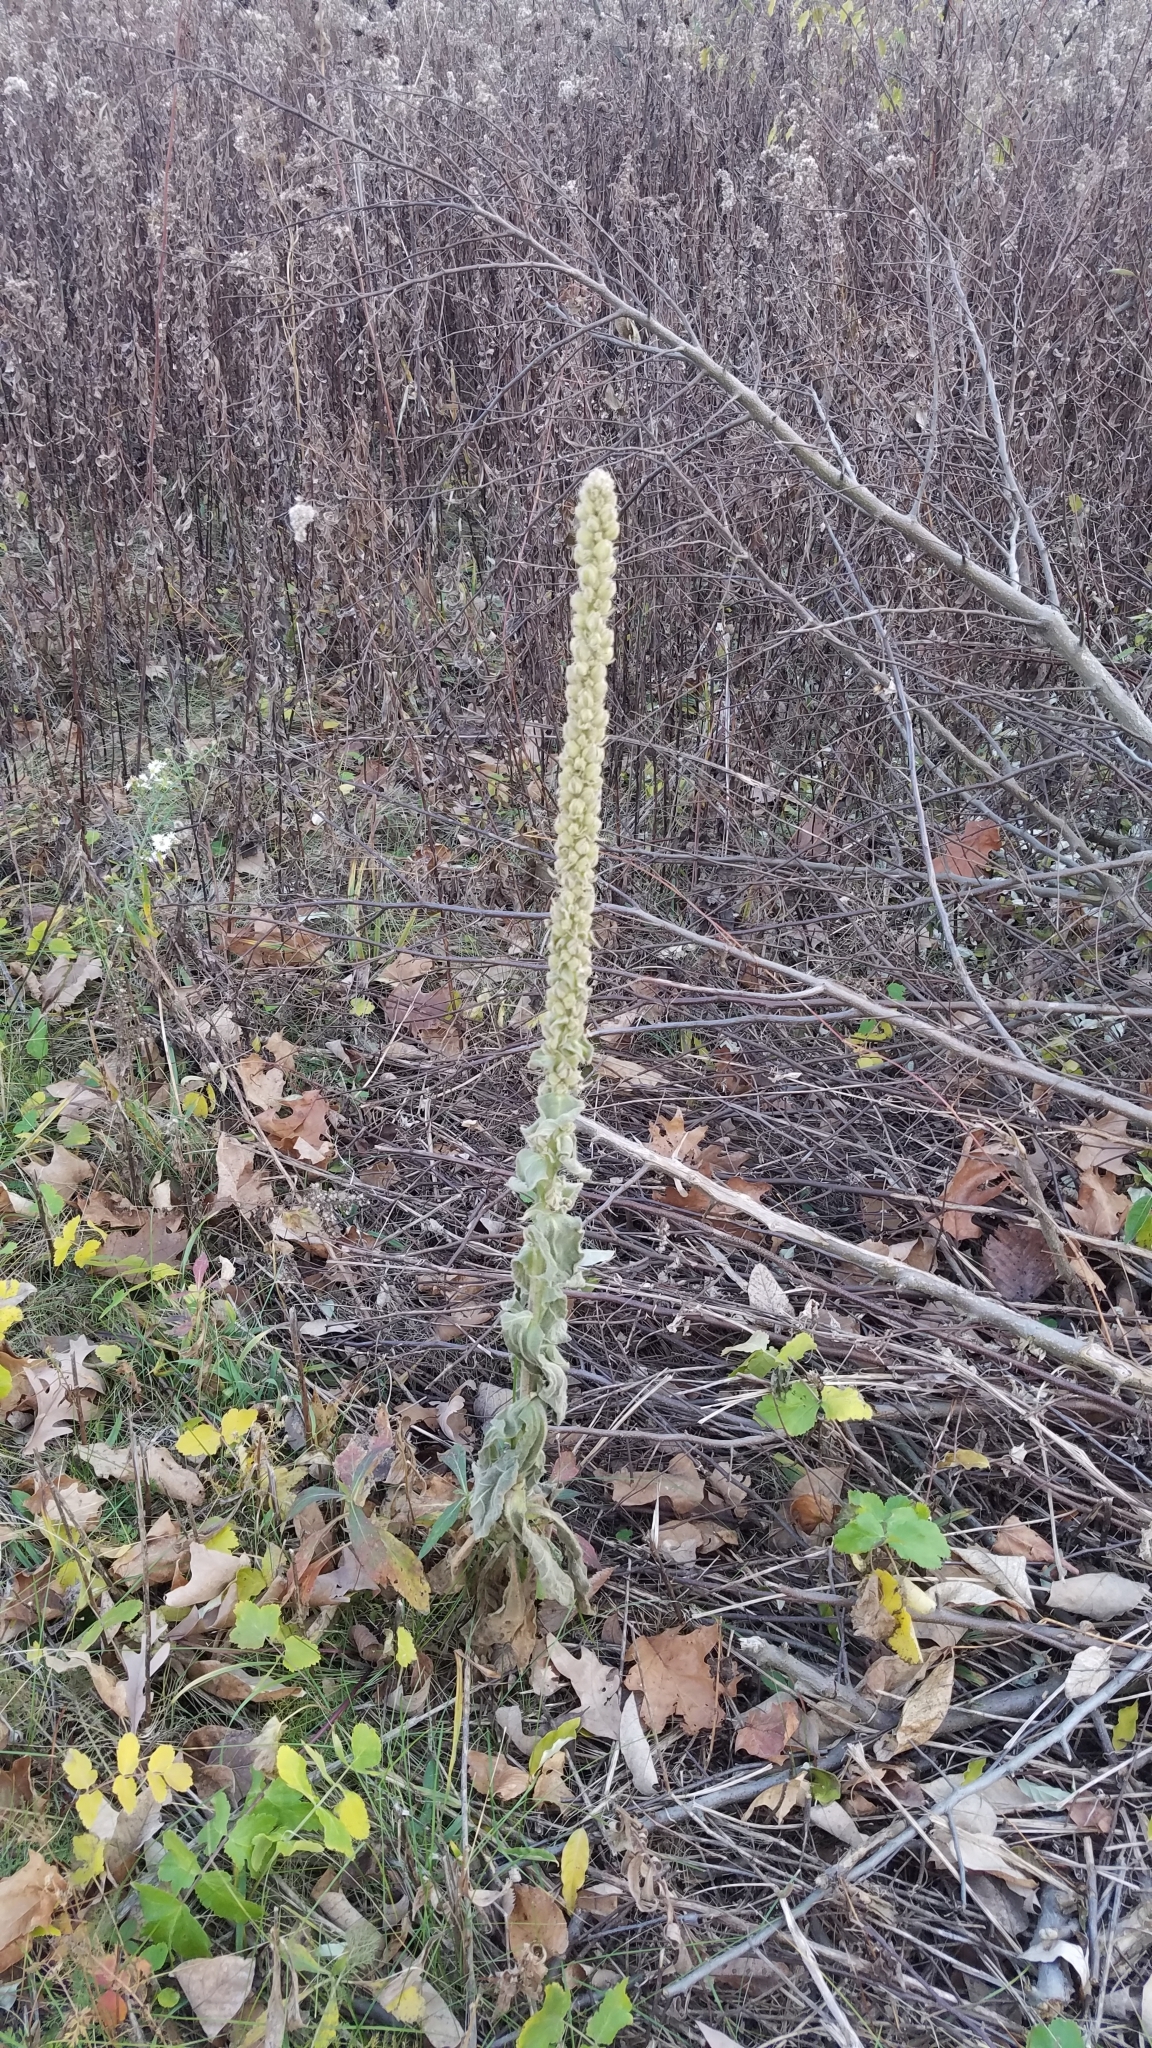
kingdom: Plantae
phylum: Tracheophyta
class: Magnoliopsida
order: Lamiales
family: Scrophulariaceae
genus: Verbascum
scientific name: Verbascum thapsus
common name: Common mullein
